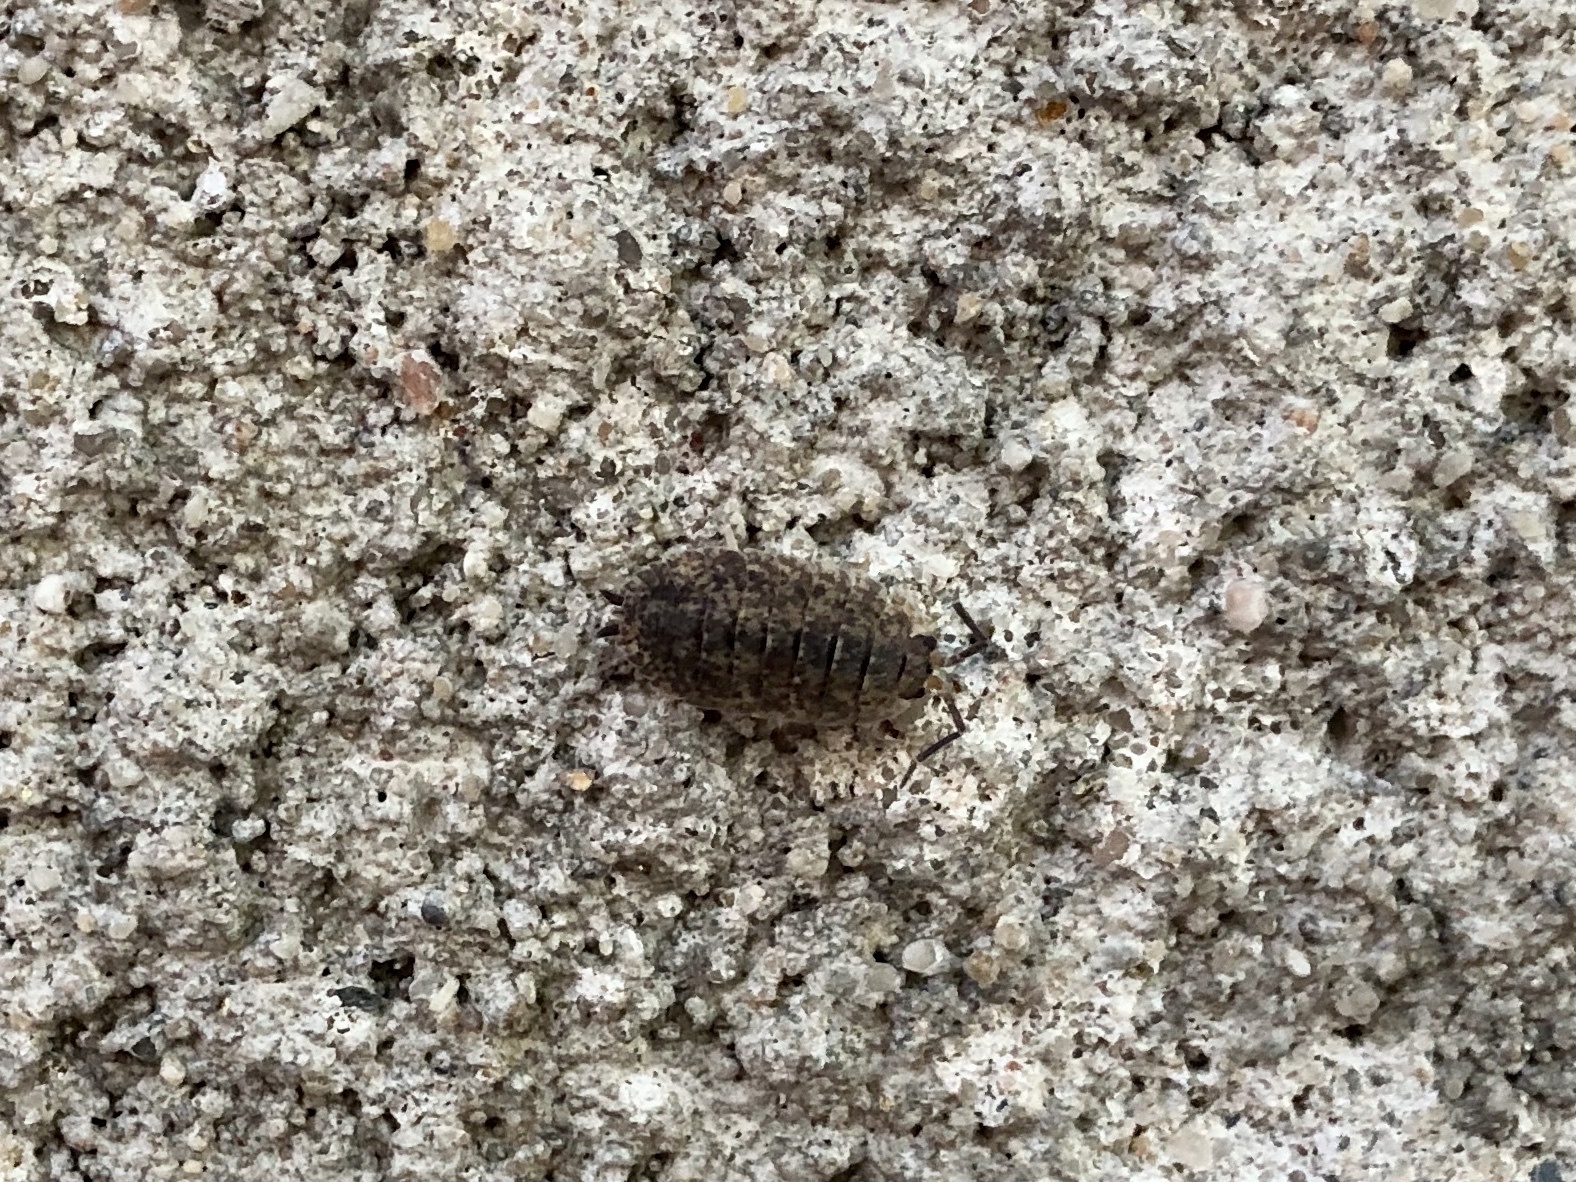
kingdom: Animalia
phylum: Arthropoda
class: Malacostraca
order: Isopoda
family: Porcellionidae
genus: Porcellio
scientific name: Porcellio scaber
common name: Common rough woodlouse
